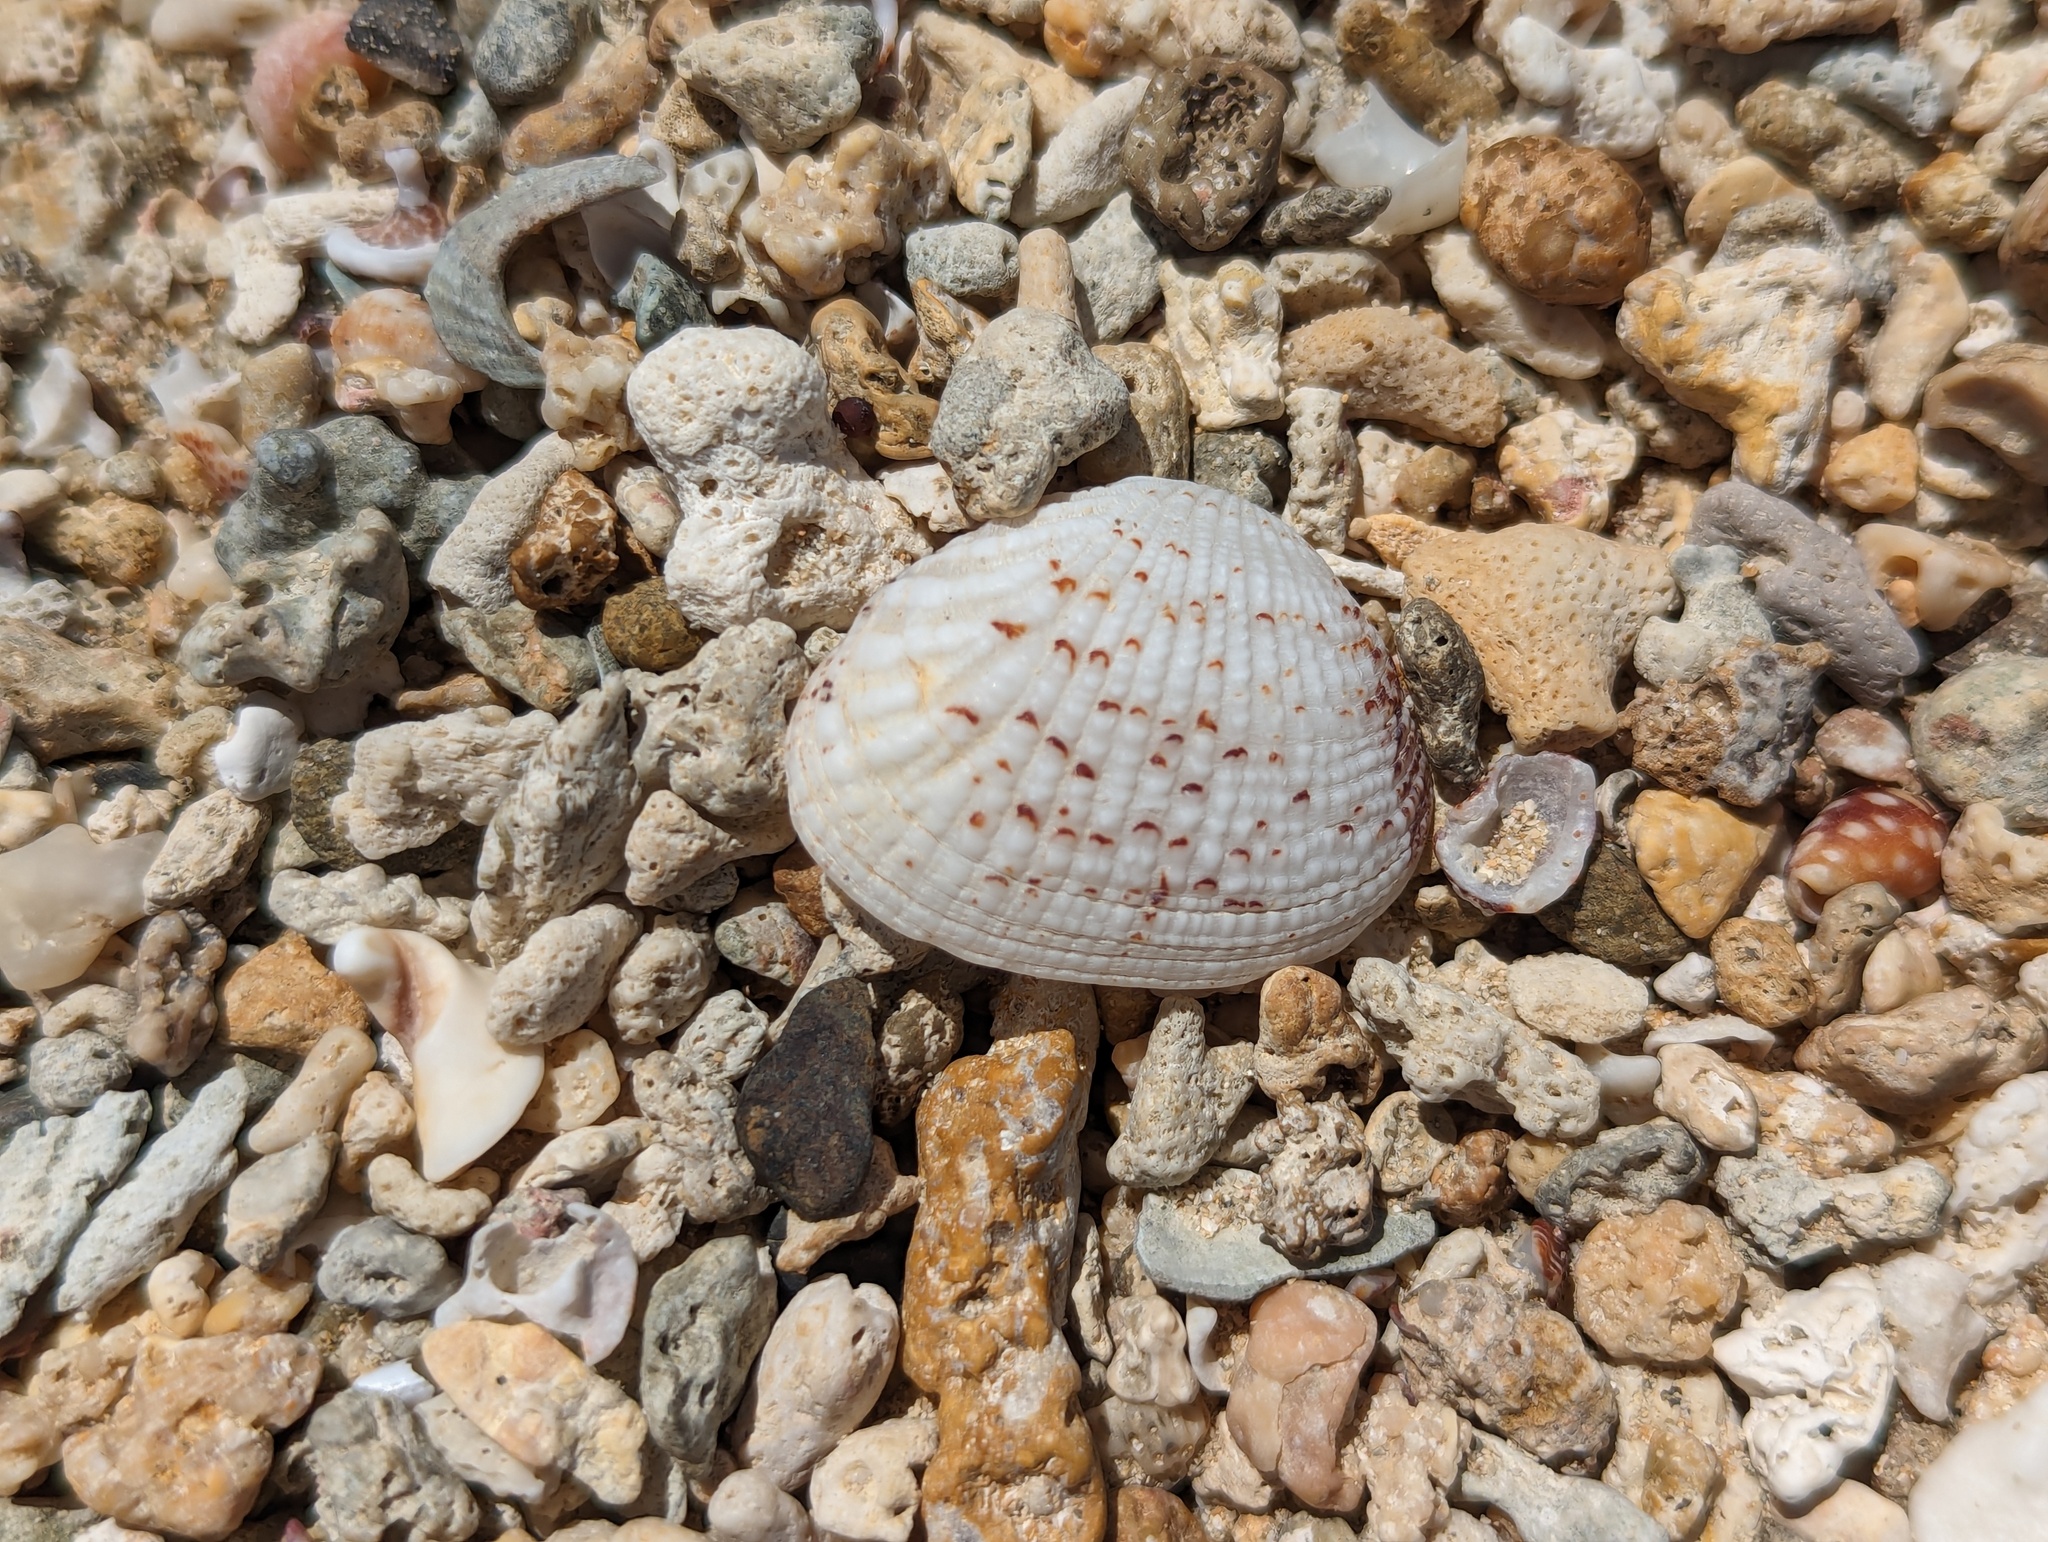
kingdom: Animalia
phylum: Mollusca
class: Bivalvia
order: Venerida
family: Veneridae
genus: Gafrarium
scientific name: Gafrarium pectinatum
